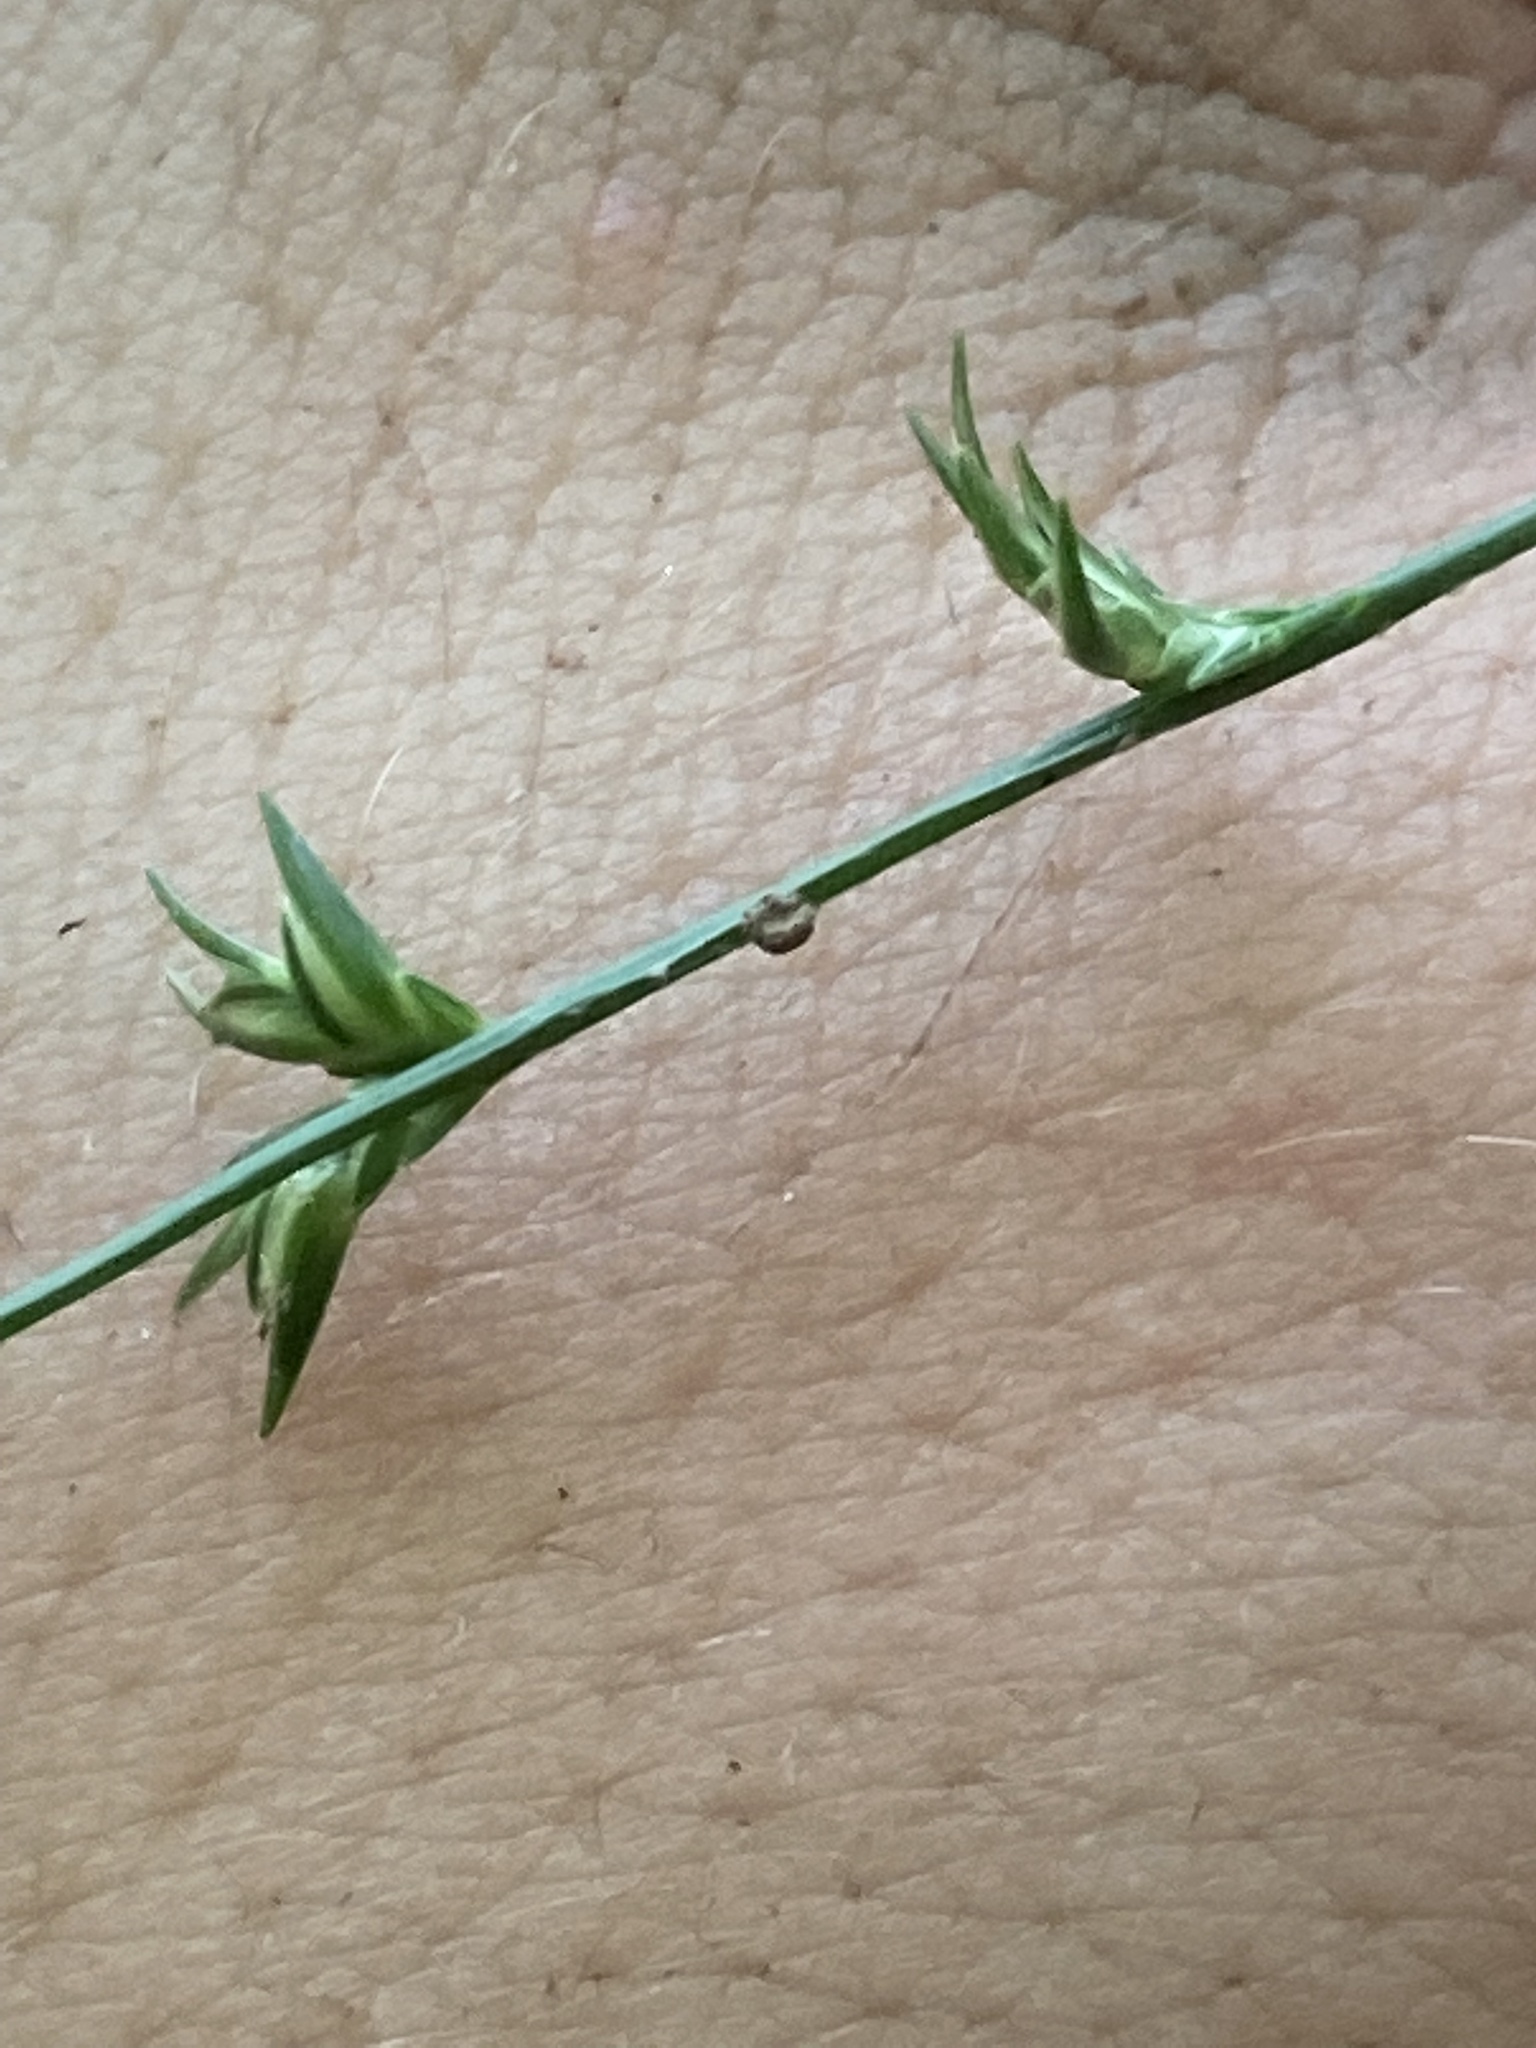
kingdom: Plantae
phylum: Tracheophyta
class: Liliopsida
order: Poales
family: Poaceae
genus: Chasmanthium
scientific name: Chasmanthium laxum
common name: Slender chasmanthium
